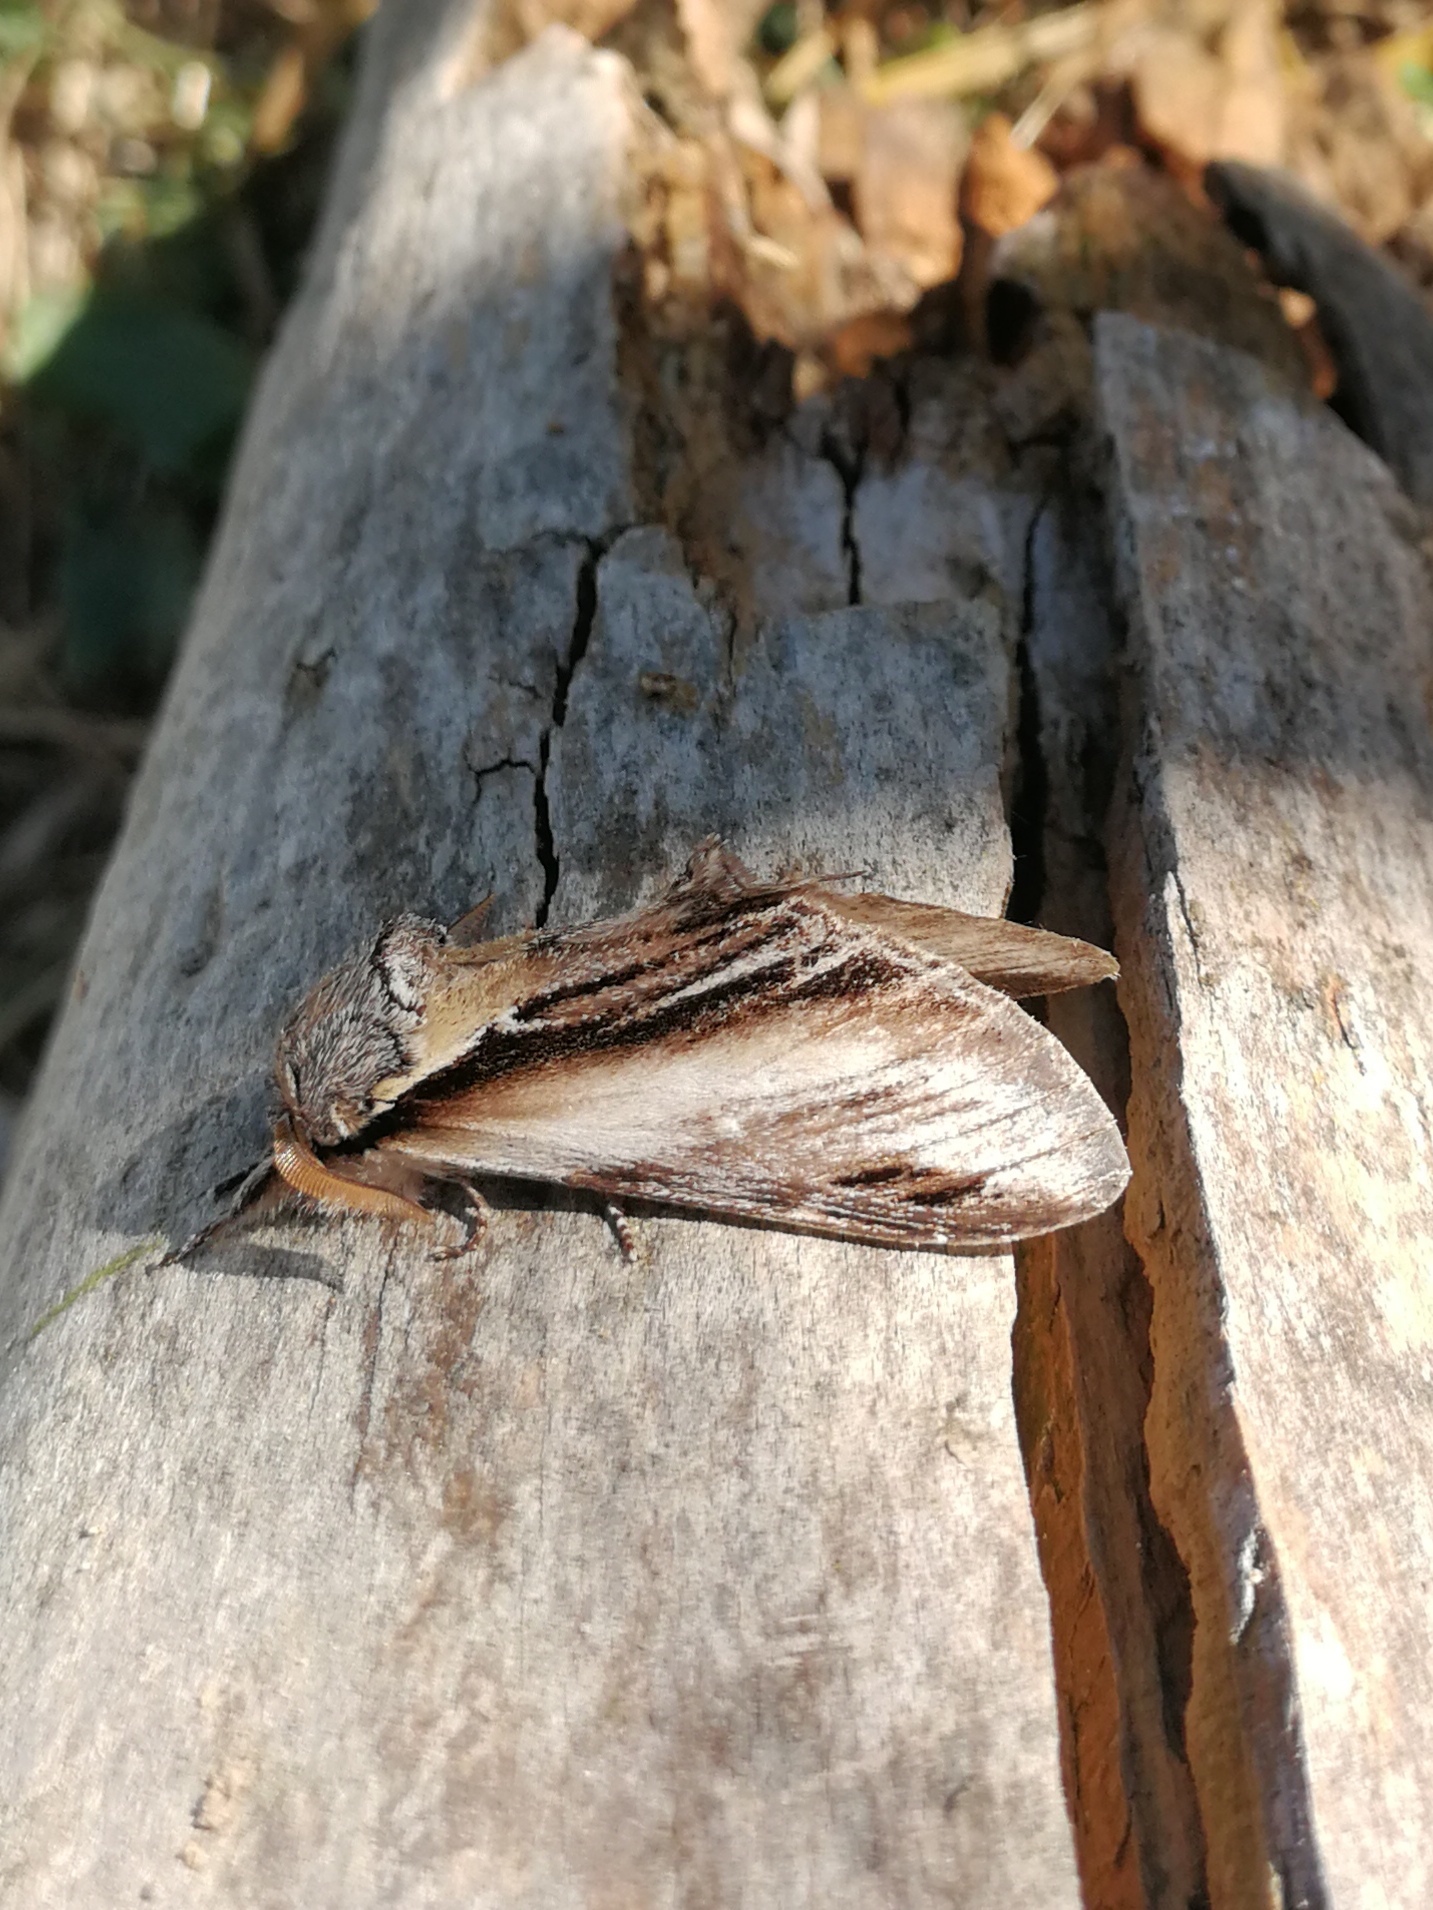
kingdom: Animalia
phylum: Arthropoda
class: Insecta
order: Lepidoptera
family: Notodontidae
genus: Pheosia
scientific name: Pheosia tremula
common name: Swallow prominent
